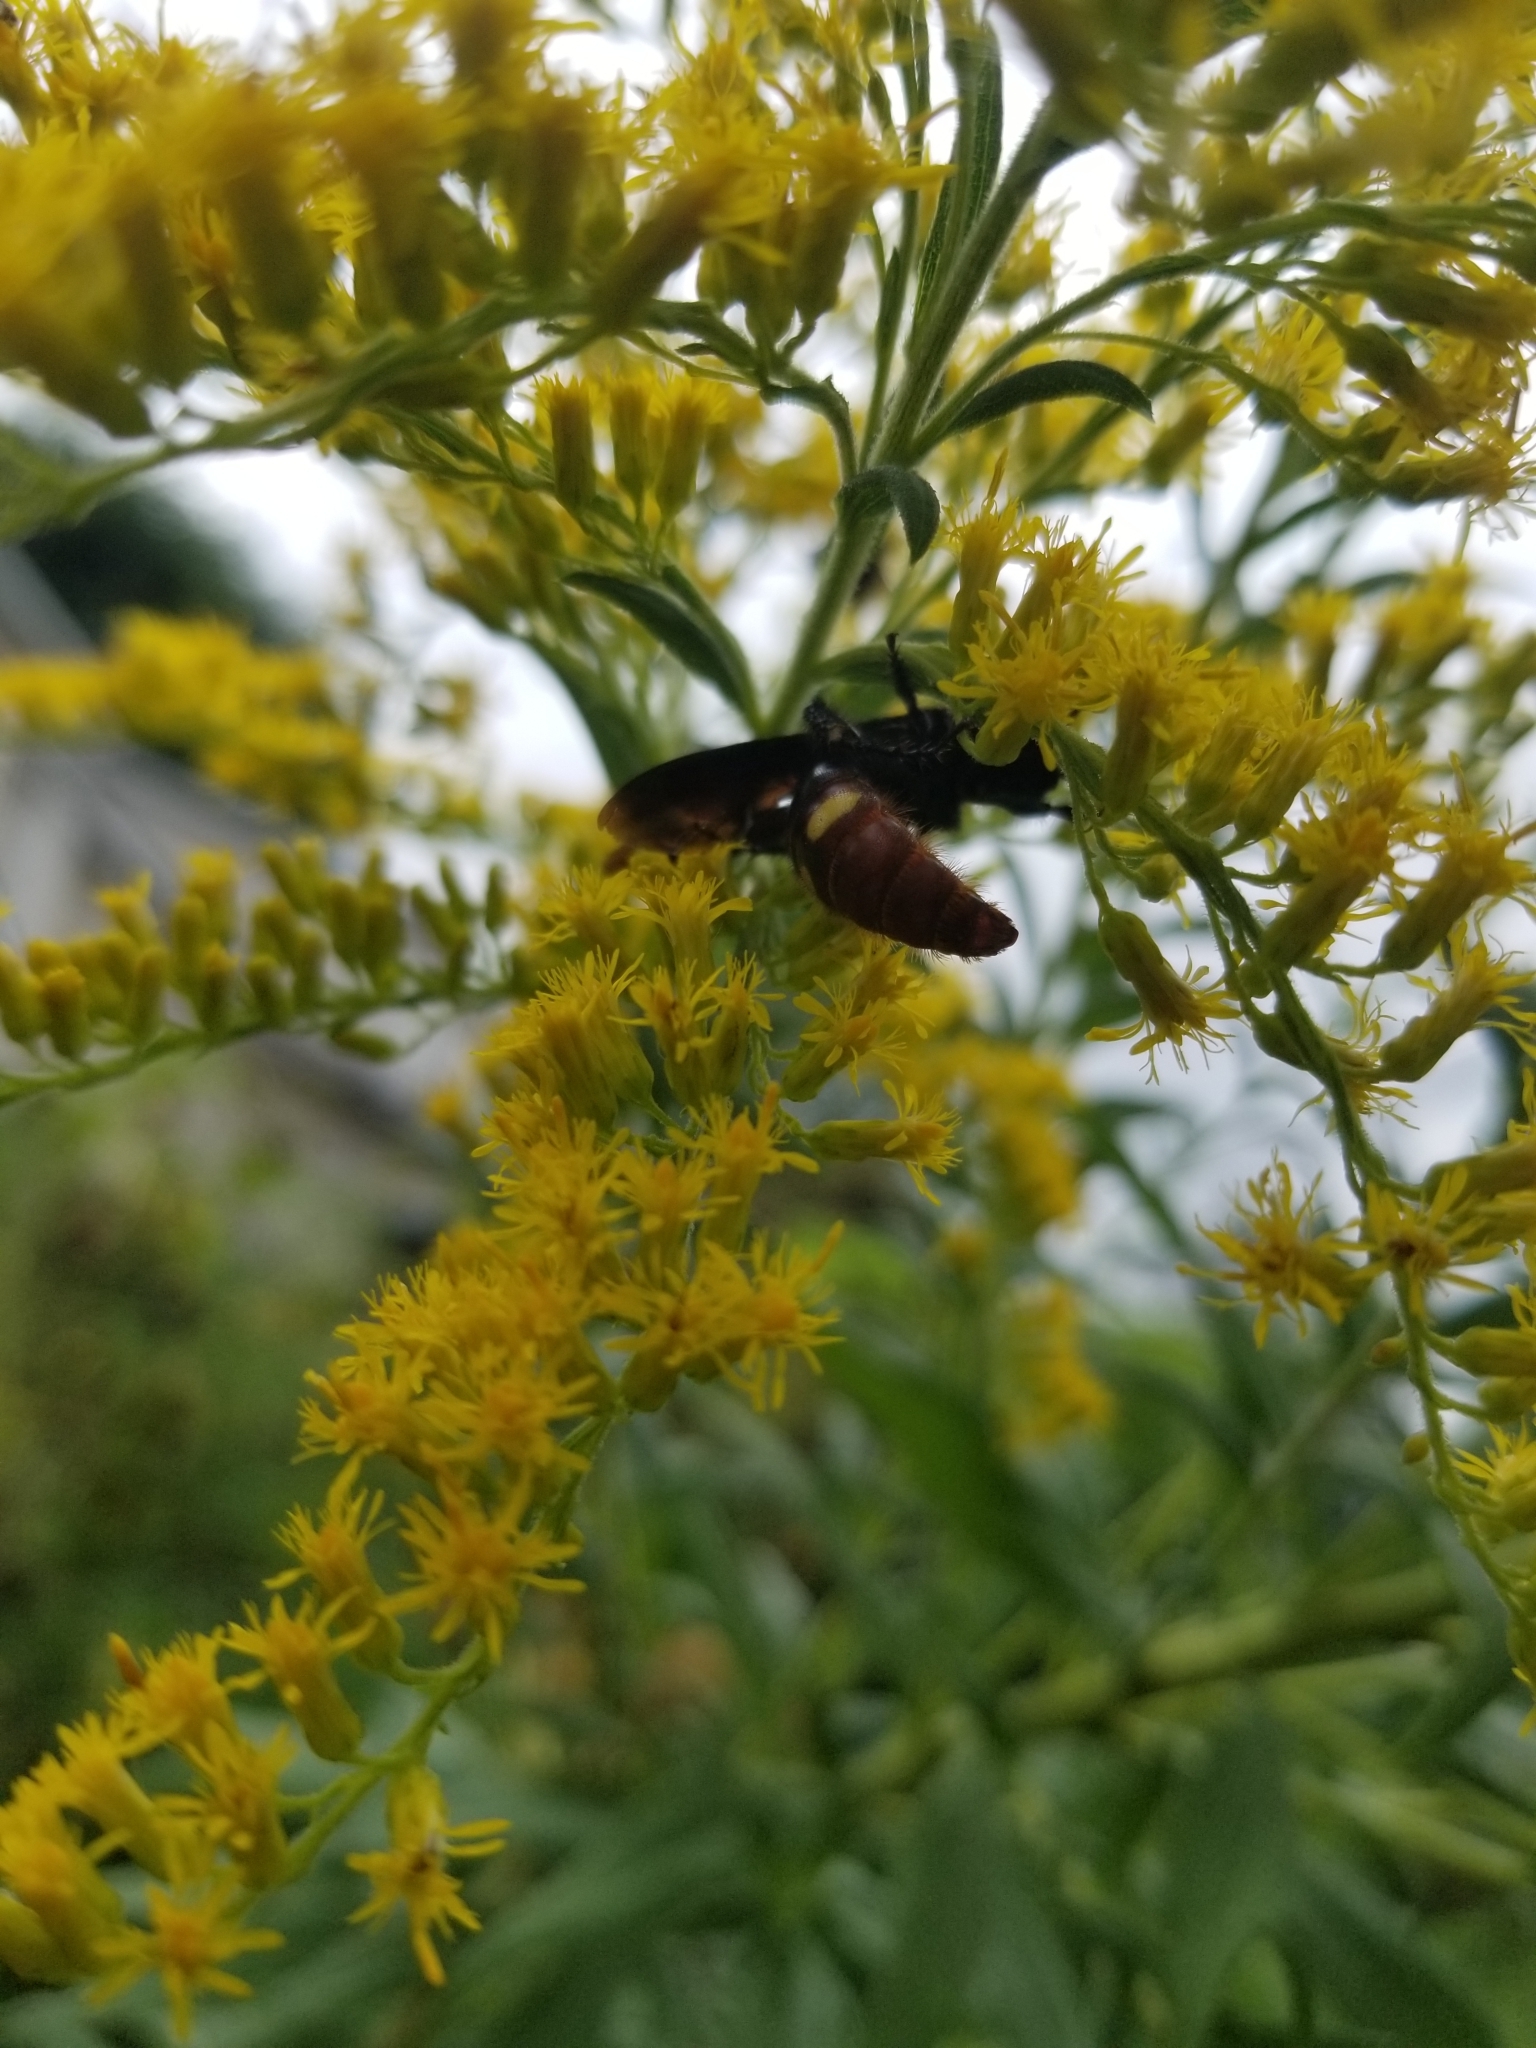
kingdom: Animalia
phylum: Arthropoda
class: Insecta
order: Hymenoptera
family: Scoliidae
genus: Scolia
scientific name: Scolia dubia
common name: Blue-winged scoliid wasp
